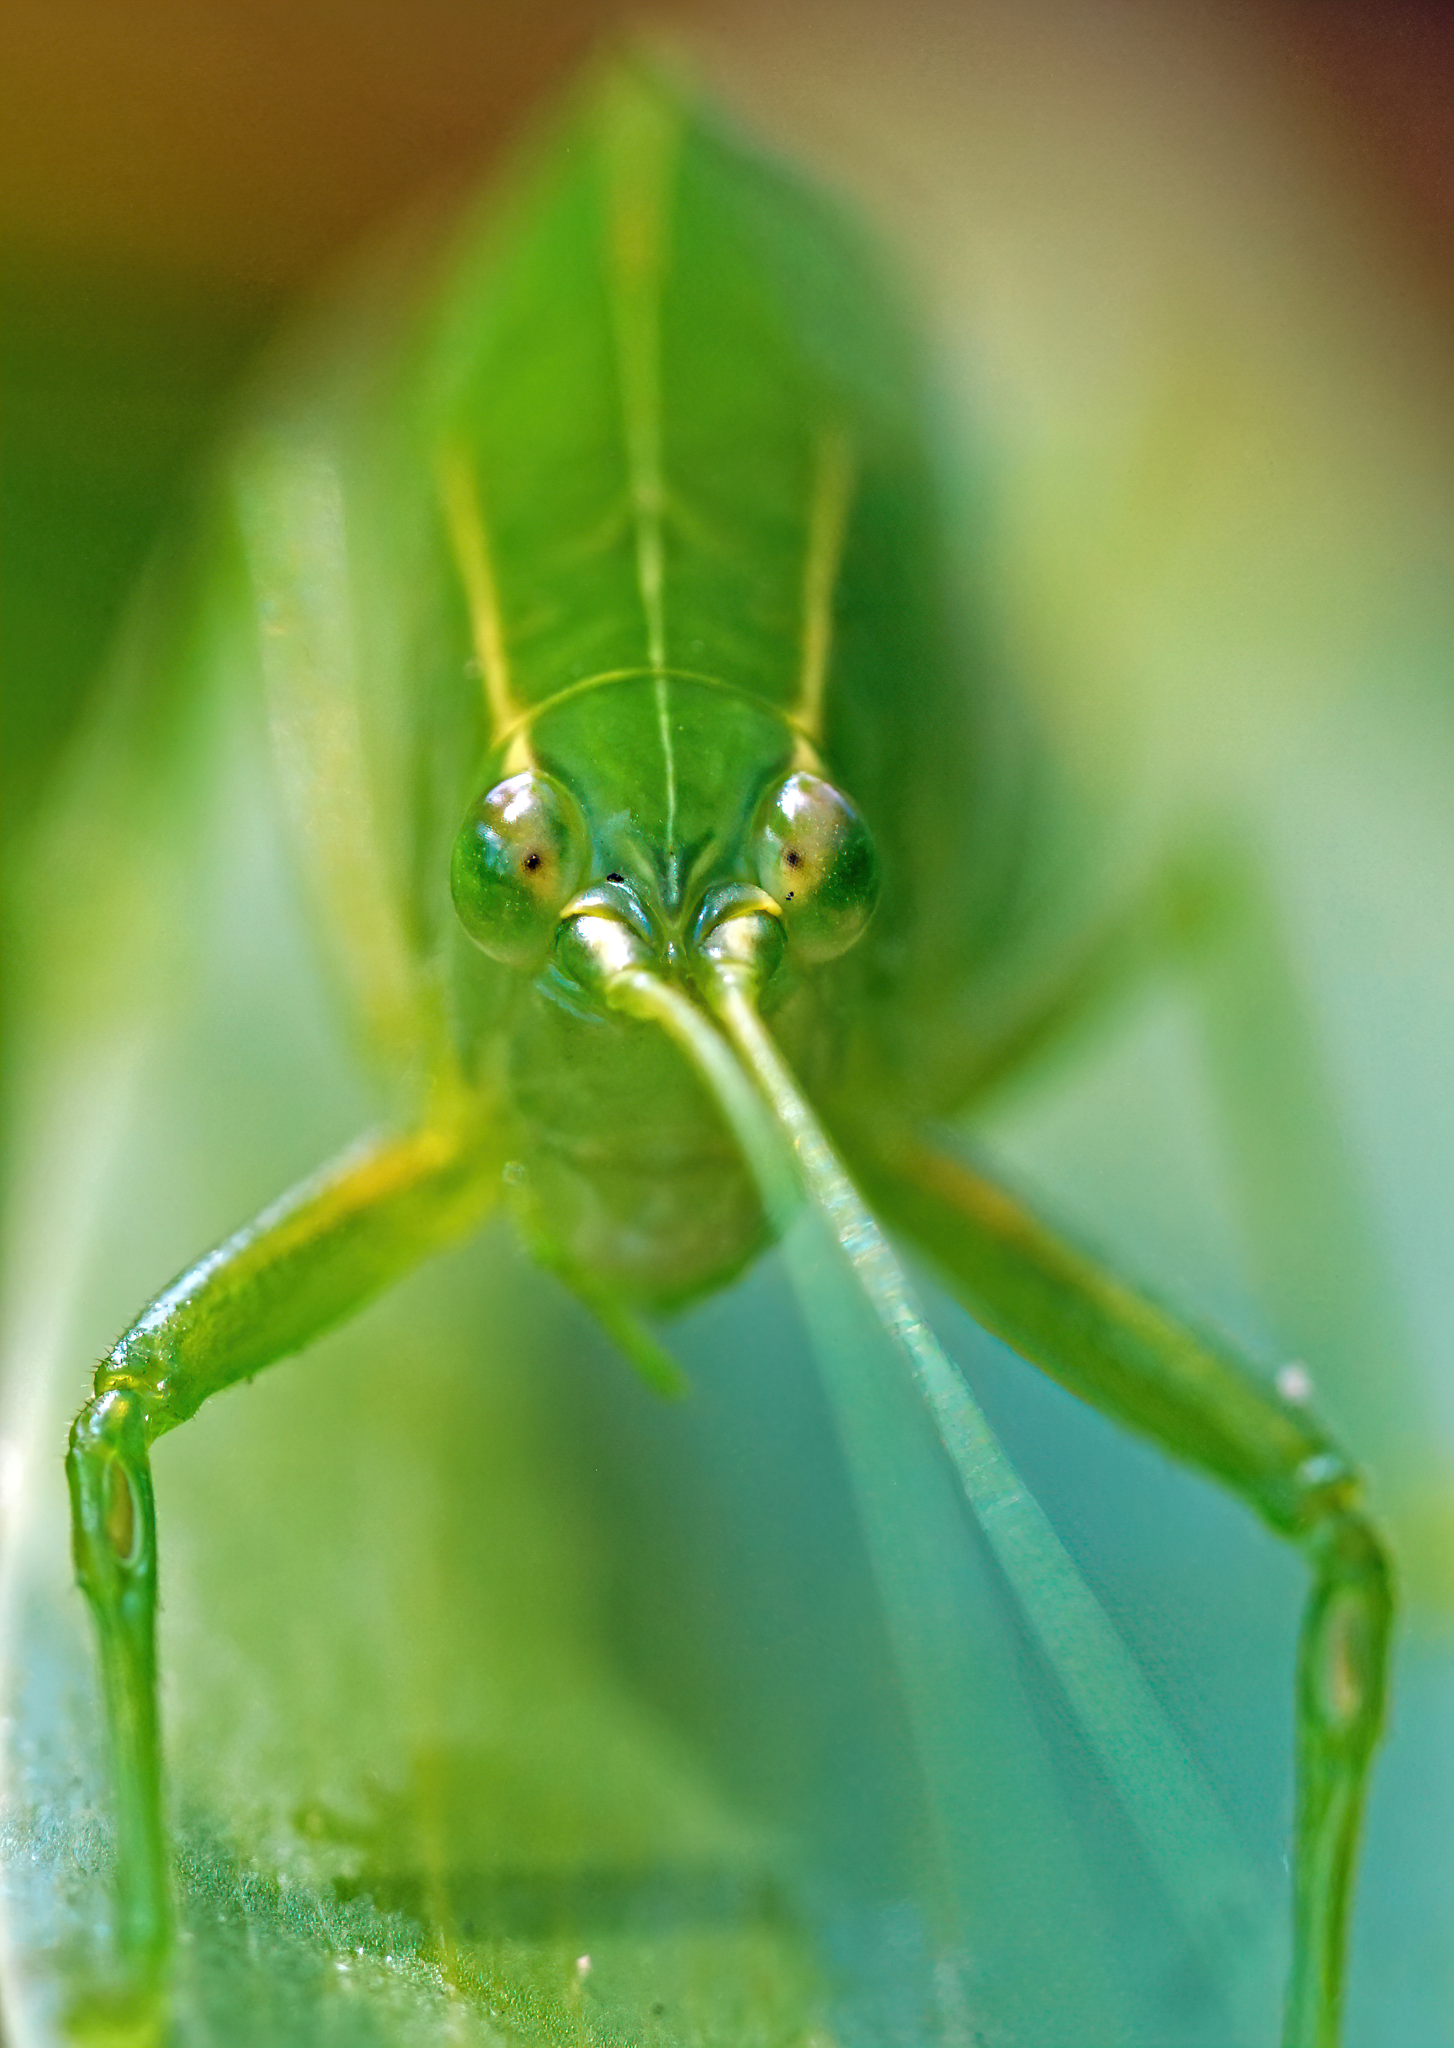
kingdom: Animalia
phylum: Arthropoda
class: Insecta
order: Orthoptera
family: Tettigoniidae
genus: Turpilia
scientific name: Turpilia rostrata
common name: Narrow-beaked katydid
